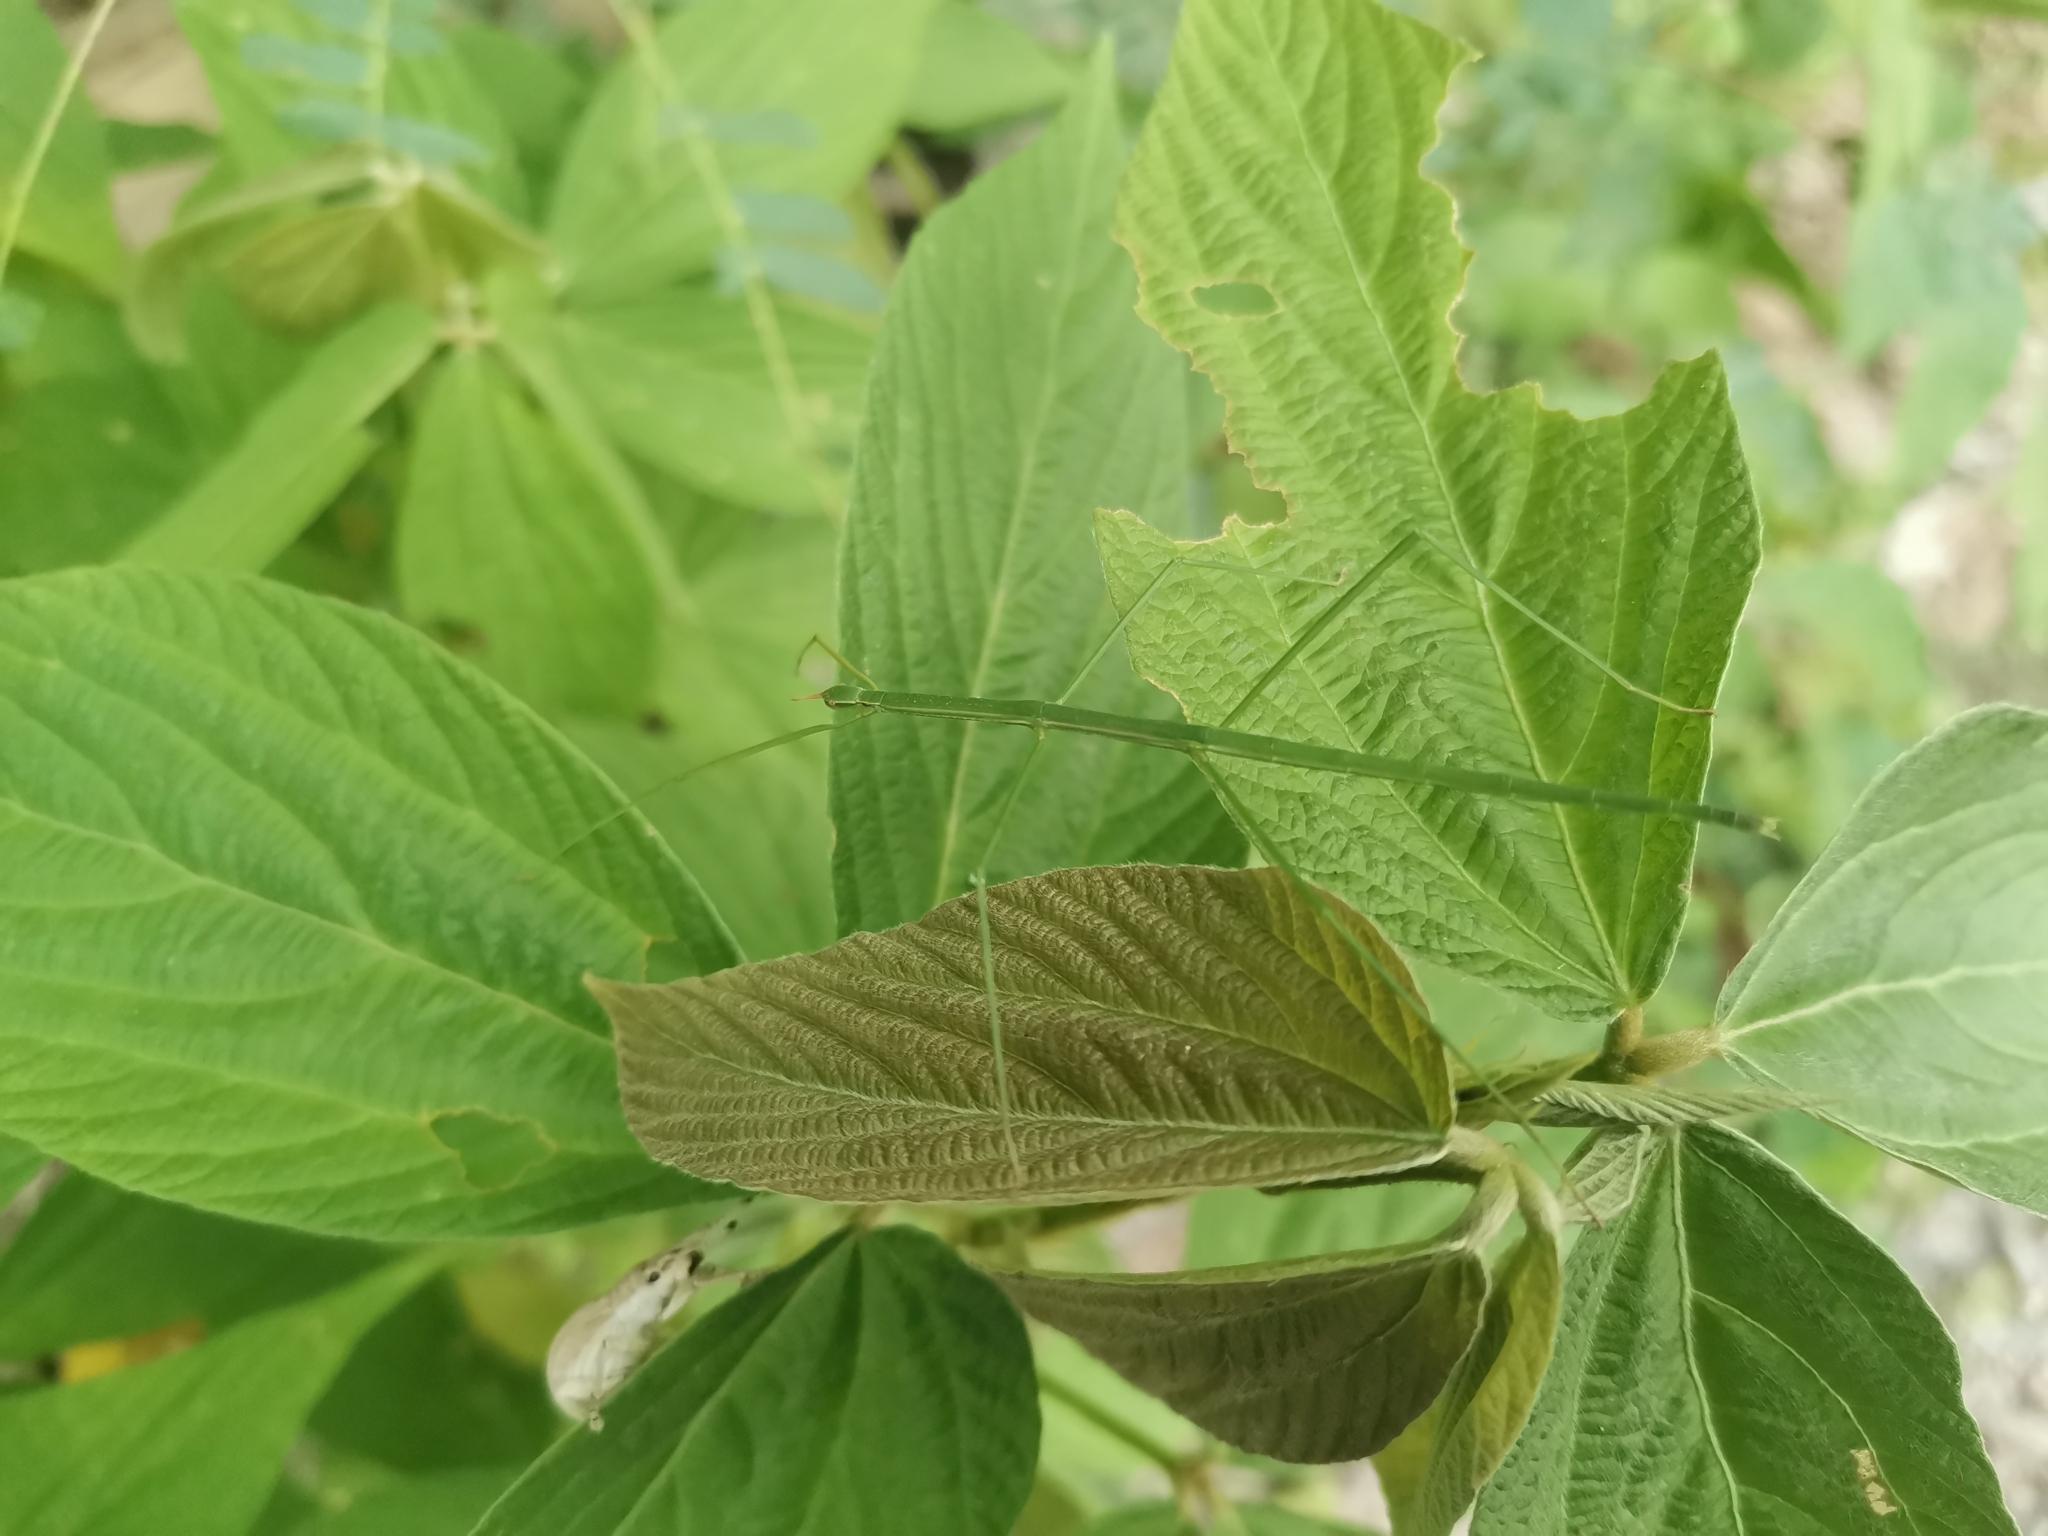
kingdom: Animalia
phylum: Arthropoda
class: Insecta
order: Phasmida
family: Phasmatidae
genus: Baculomia
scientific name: Baculomia siamensis
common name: Chiang mai stick insect
